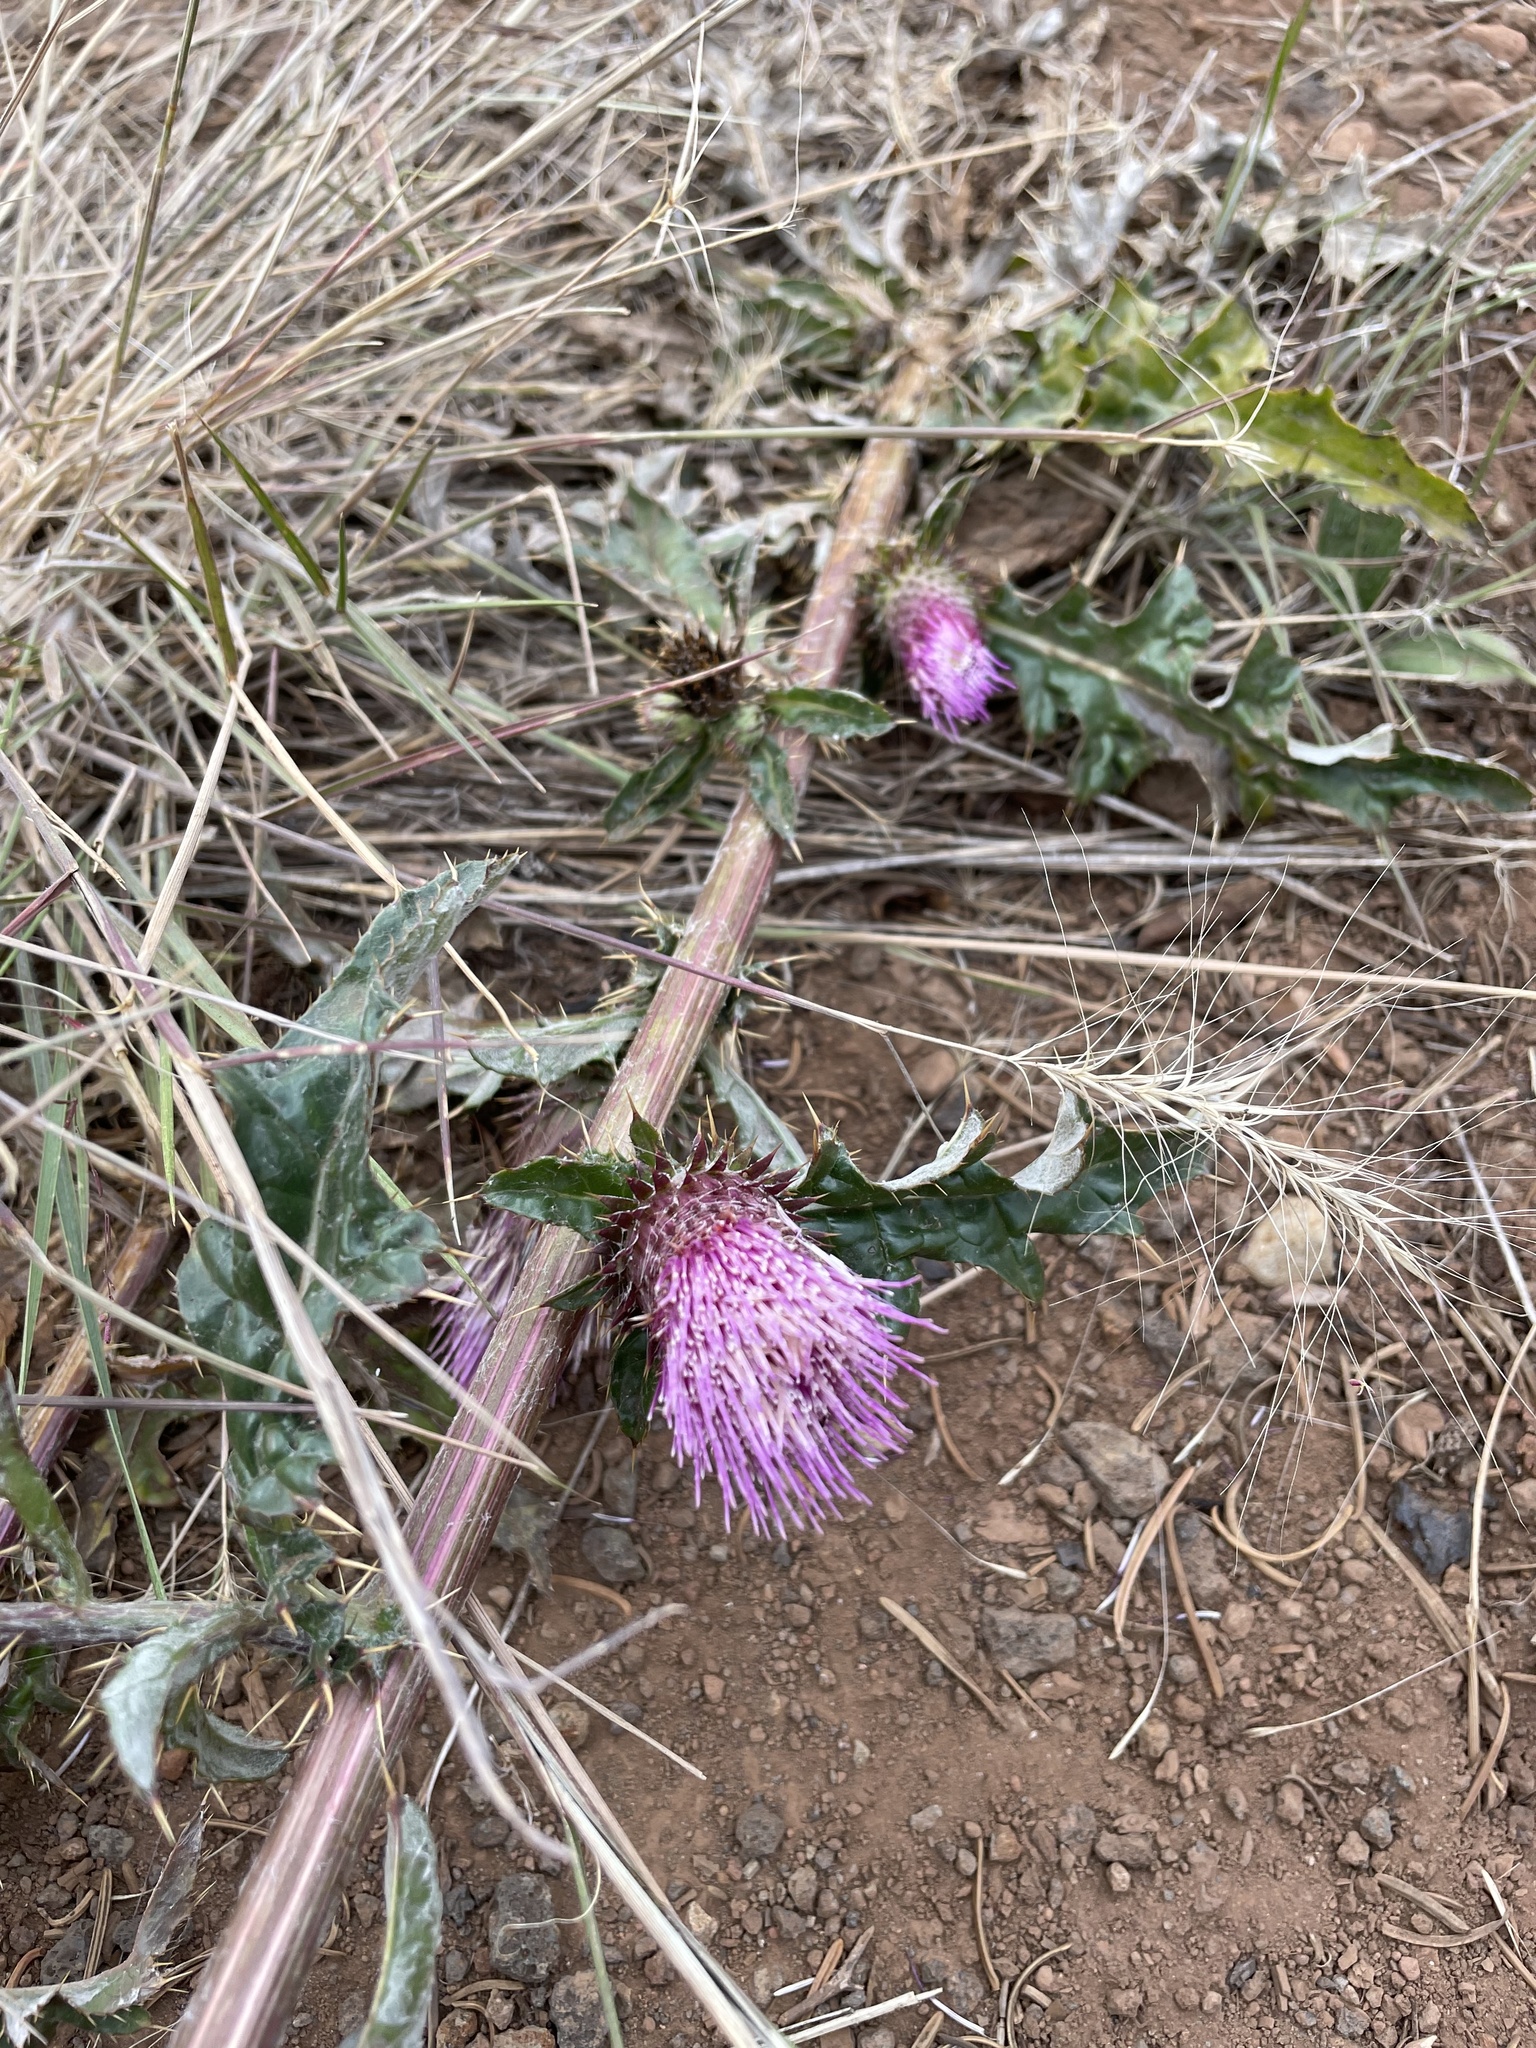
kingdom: Plantae
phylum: Tracheophyta
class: Magnoliopsida
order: Asterales
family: Asteraceae
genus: Cirsium
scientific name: Cirsium andersonii
